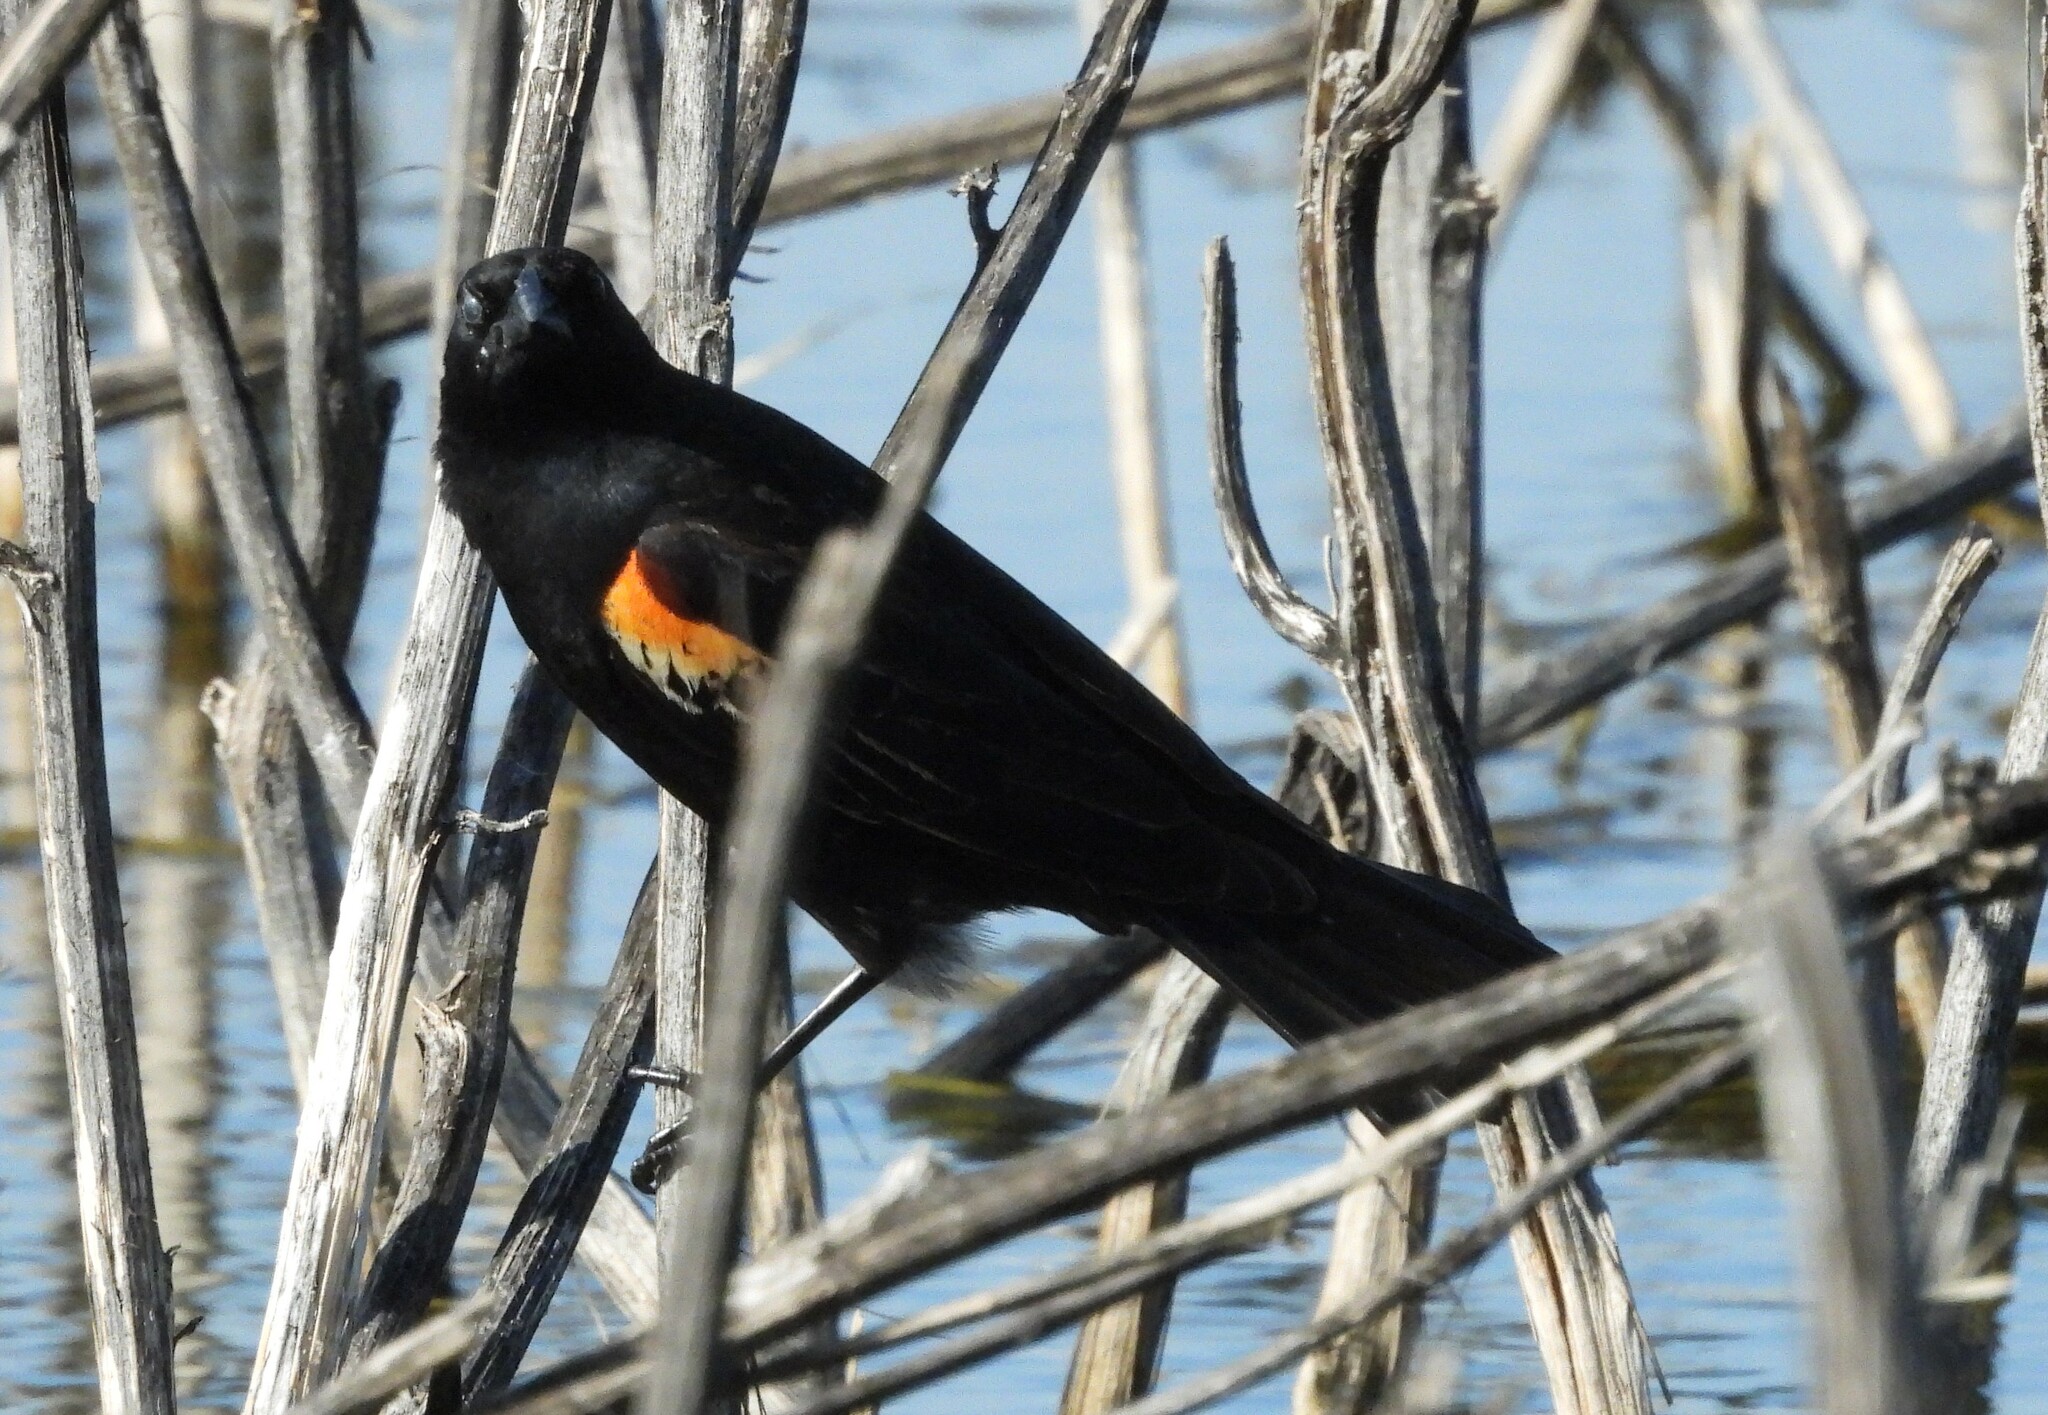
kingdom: Animalia
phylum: Chordata
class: Aves
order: Passeriformes
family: Icteridae
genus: Agelaius
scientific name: Agelaius phoeniceus
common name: Red-winged blackbird
